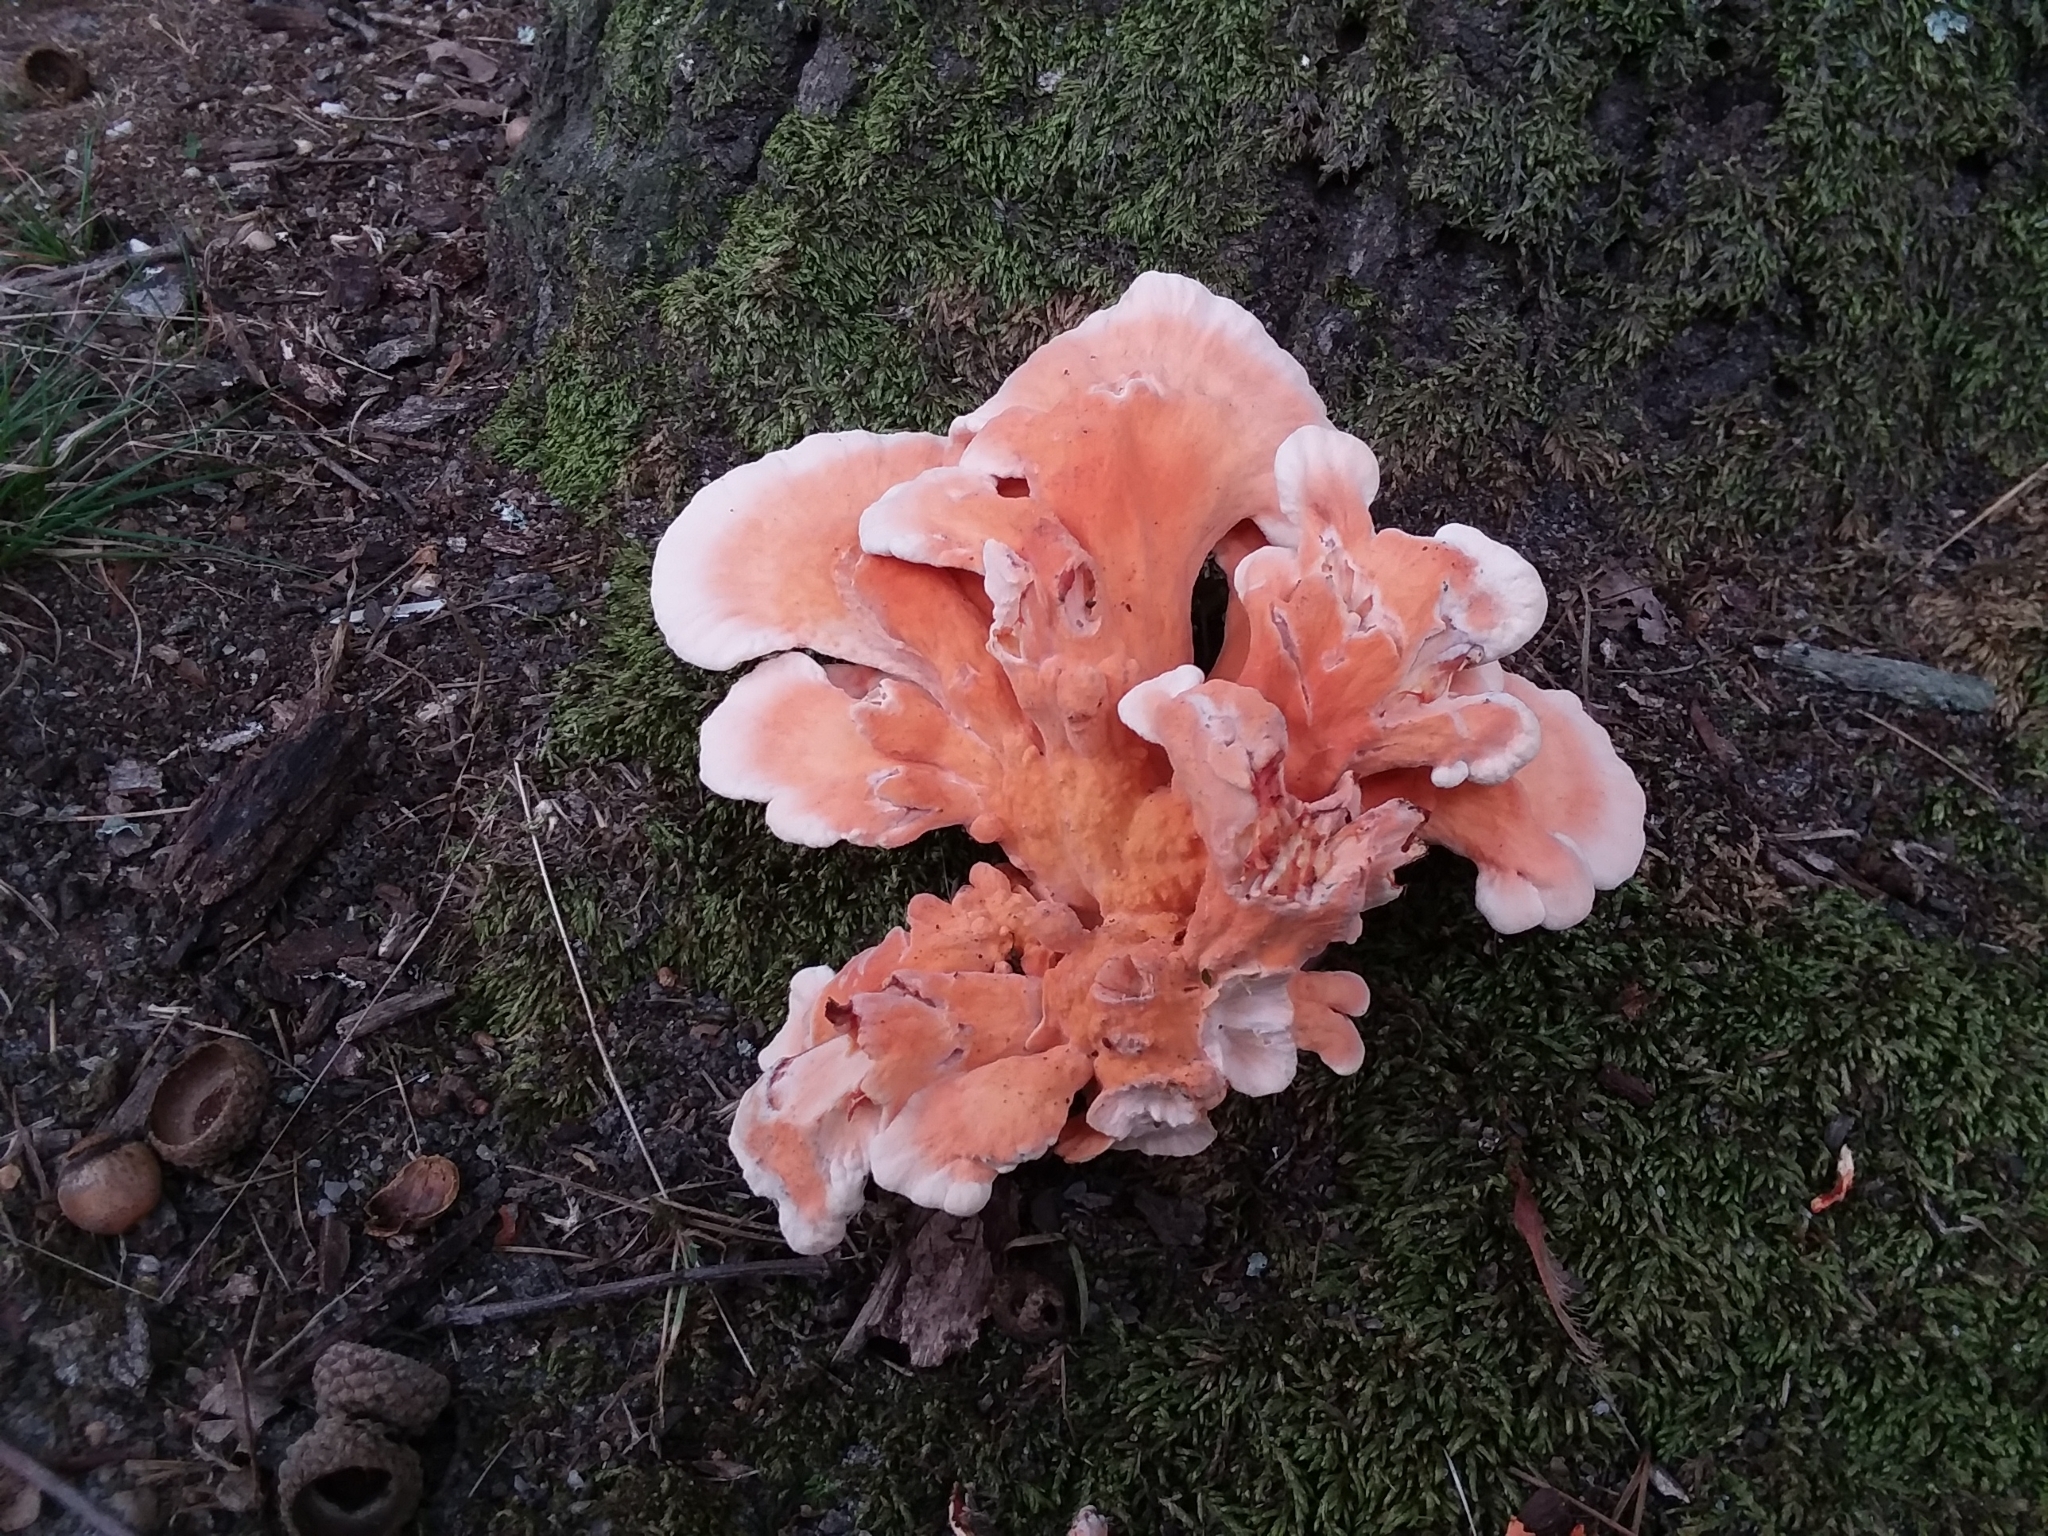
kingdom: Fungi
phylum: Basidiomycota
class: Agaricomycetes
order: Polyporales
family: Laetiporaceae
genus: Laetiporus
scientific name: Laetiporus sulphureus
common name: Chicken of the woods
